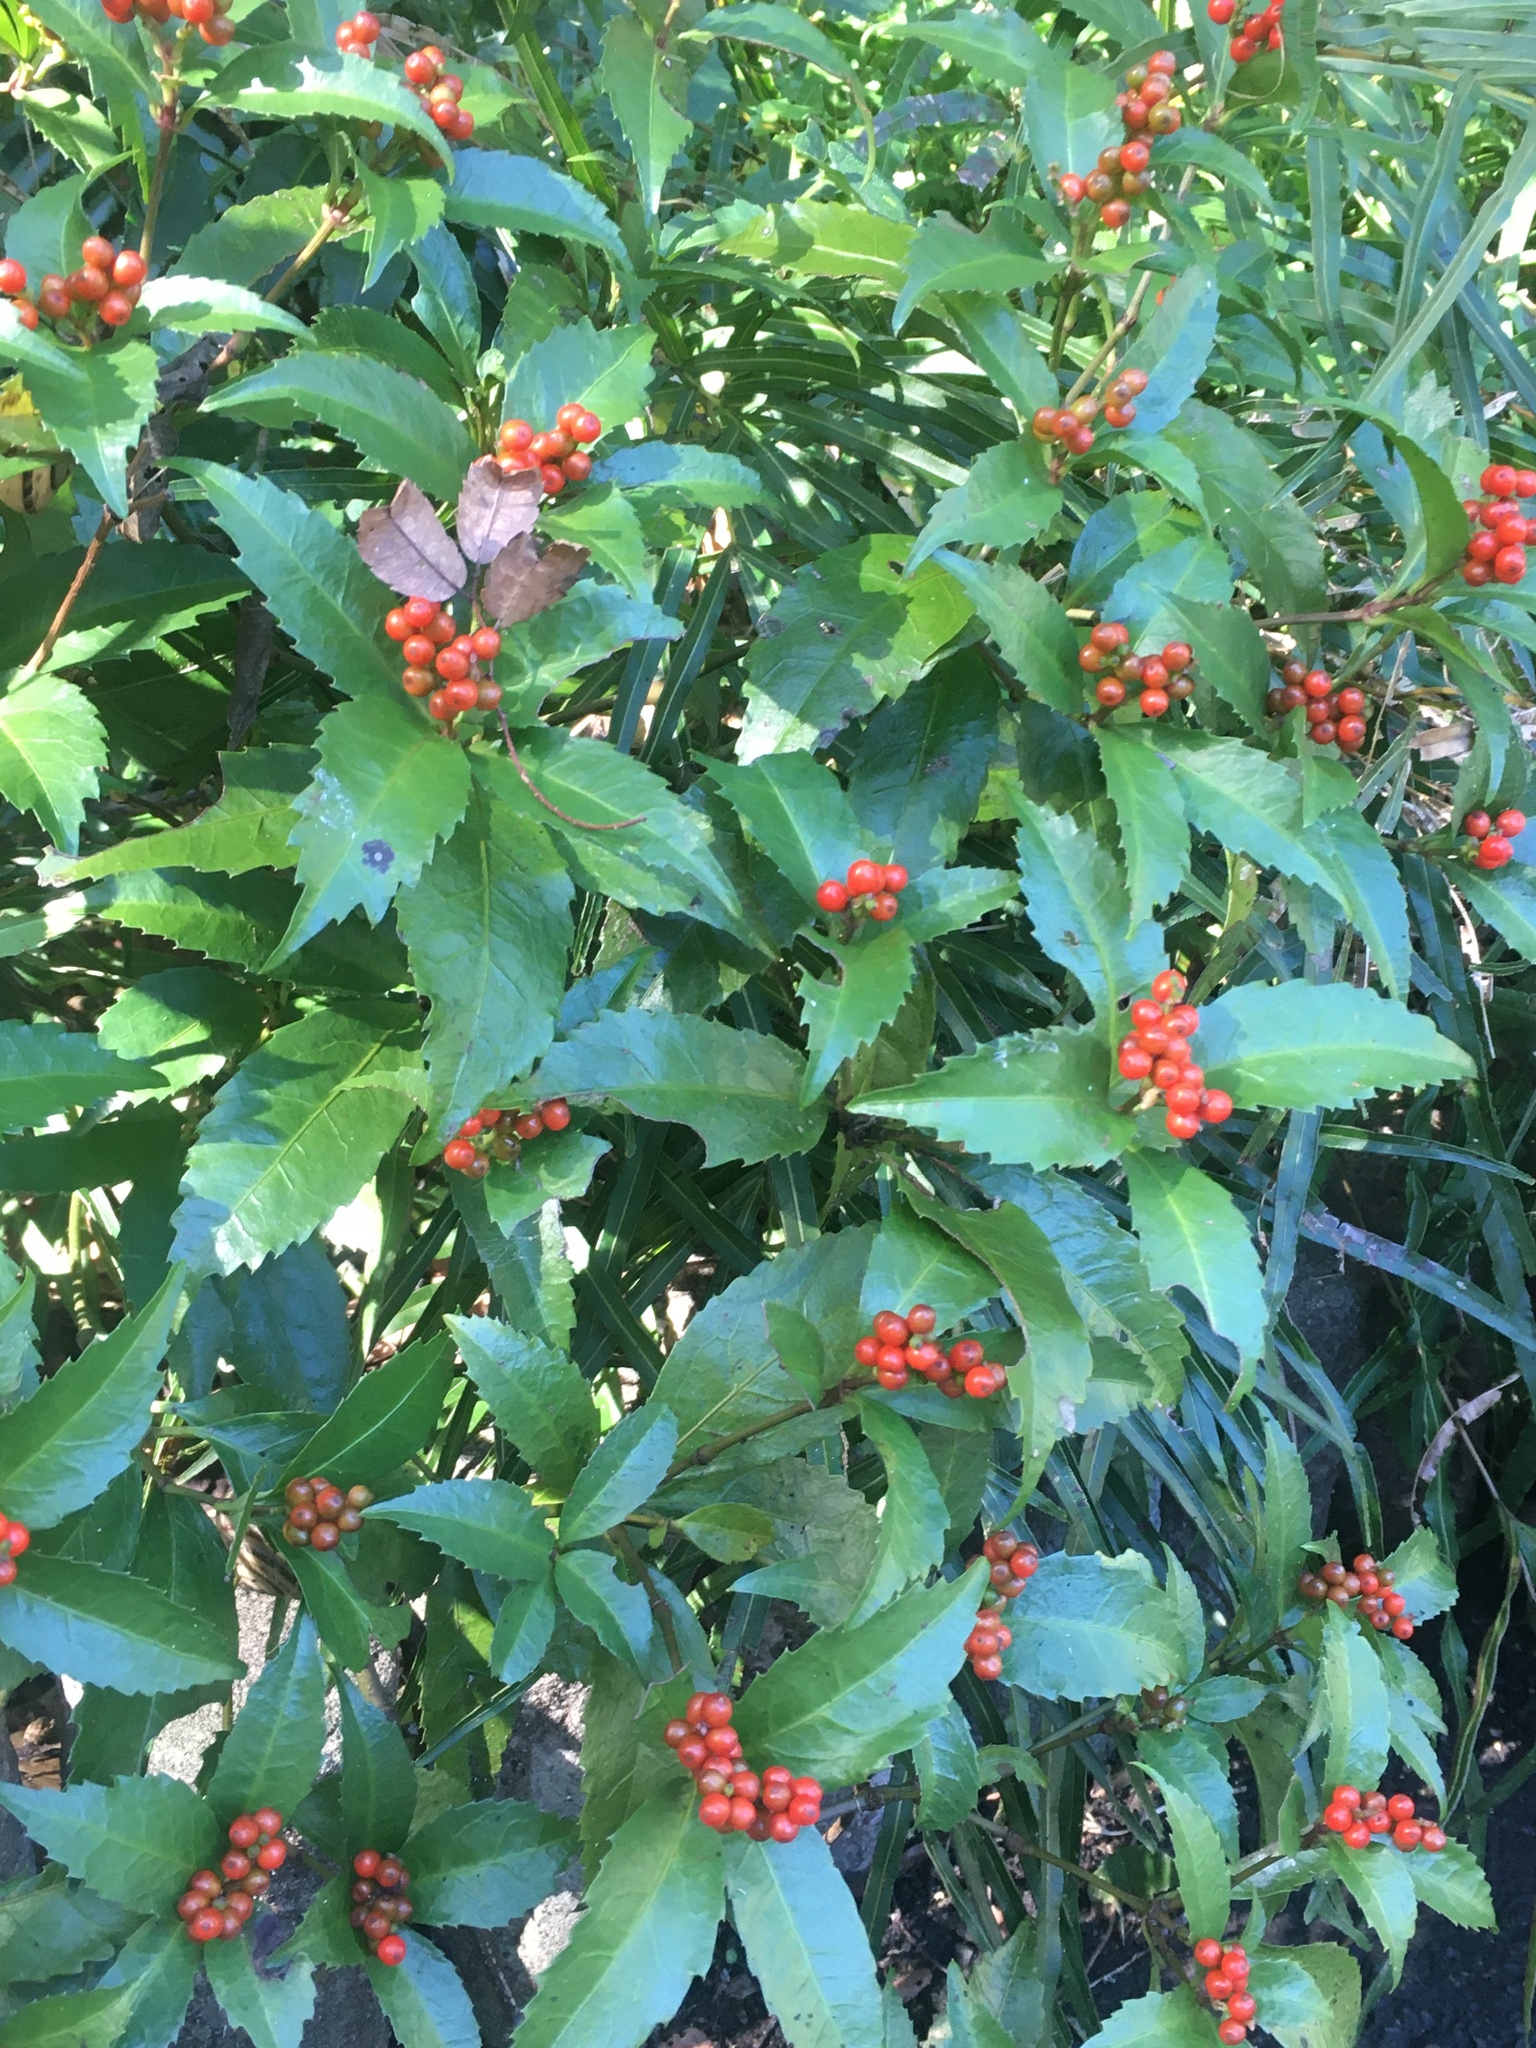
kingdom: Plantae
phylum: Tracheophyta
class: Magnoliopsida
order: Chloranthales
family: Chloranthaceae
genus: Sarcandra
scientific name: Sarcandra glabra
